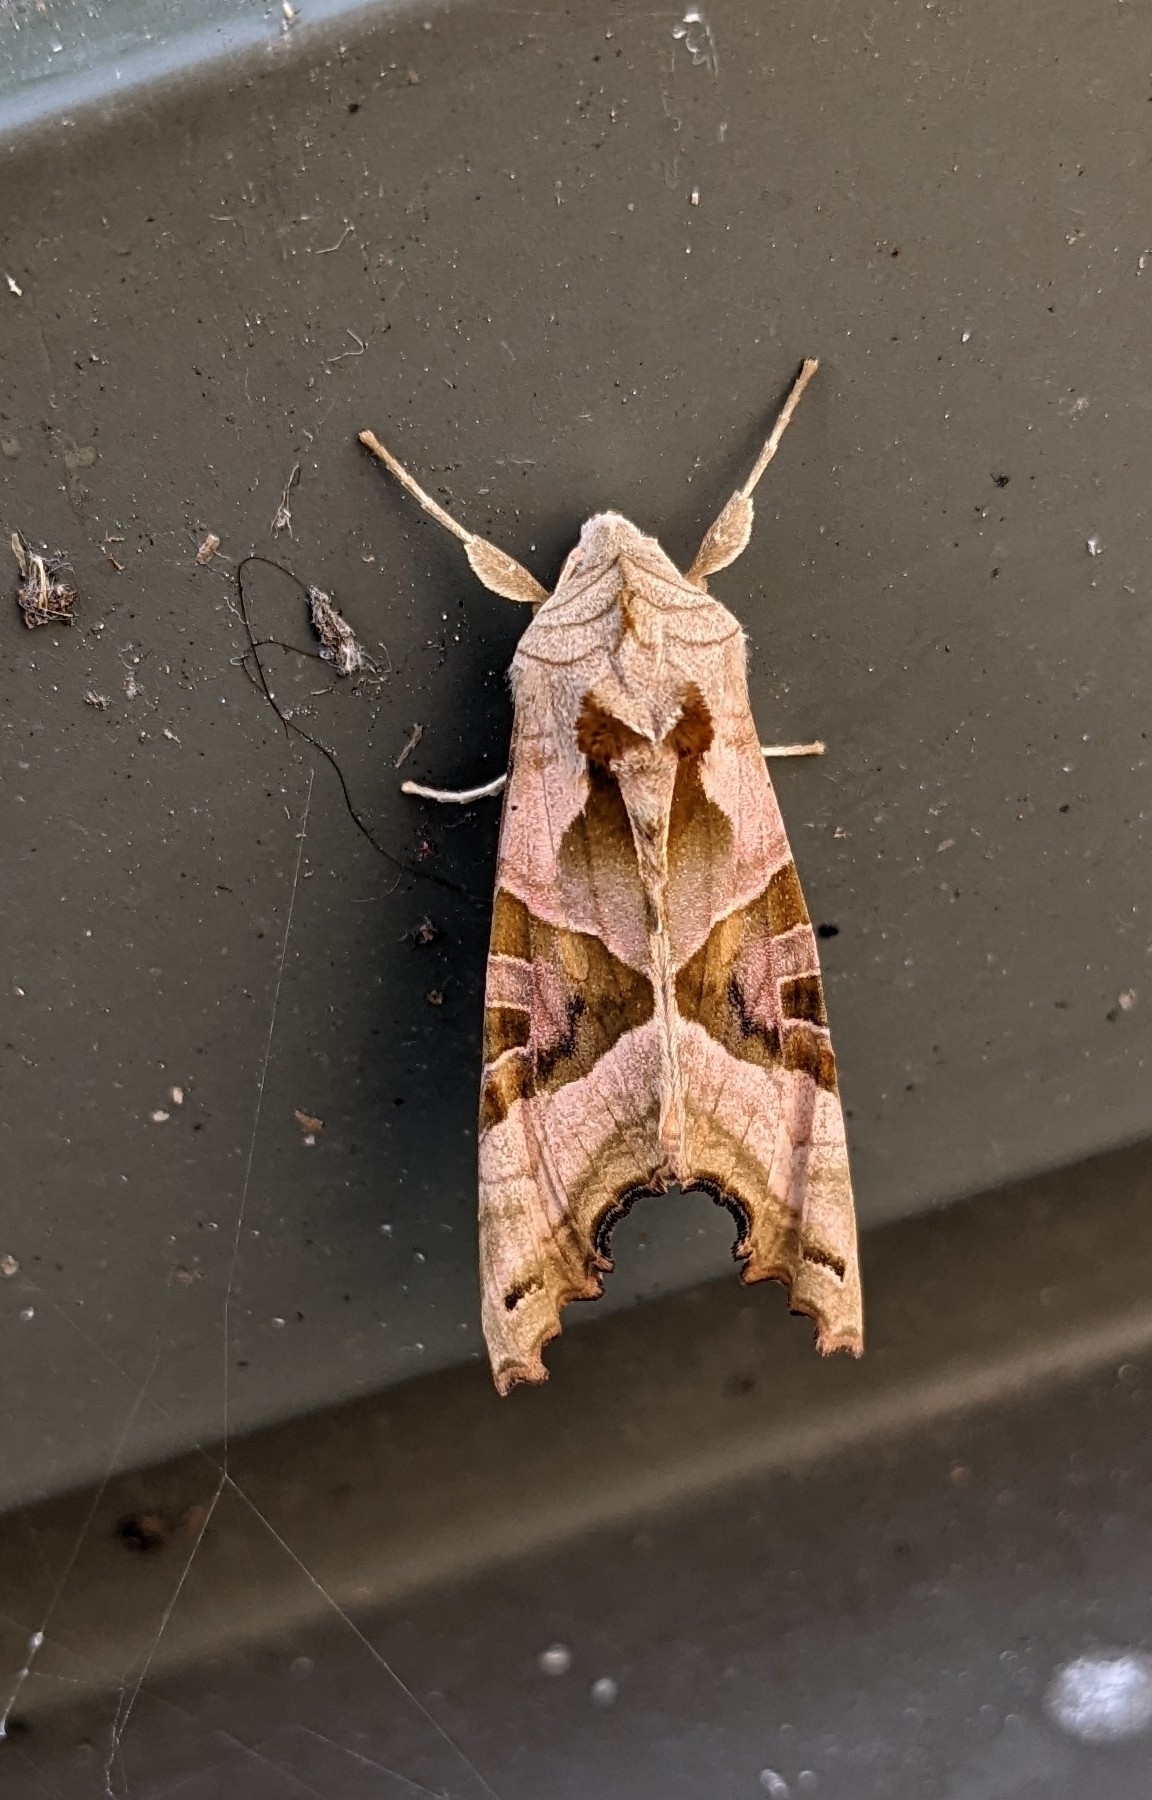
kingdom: Animalia
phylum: Arthropoda
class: Insecta
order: Lepidoptera
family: Noctuidae
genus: Phlogophora
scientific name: Phlogophora meticulosa
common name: Angle shades
